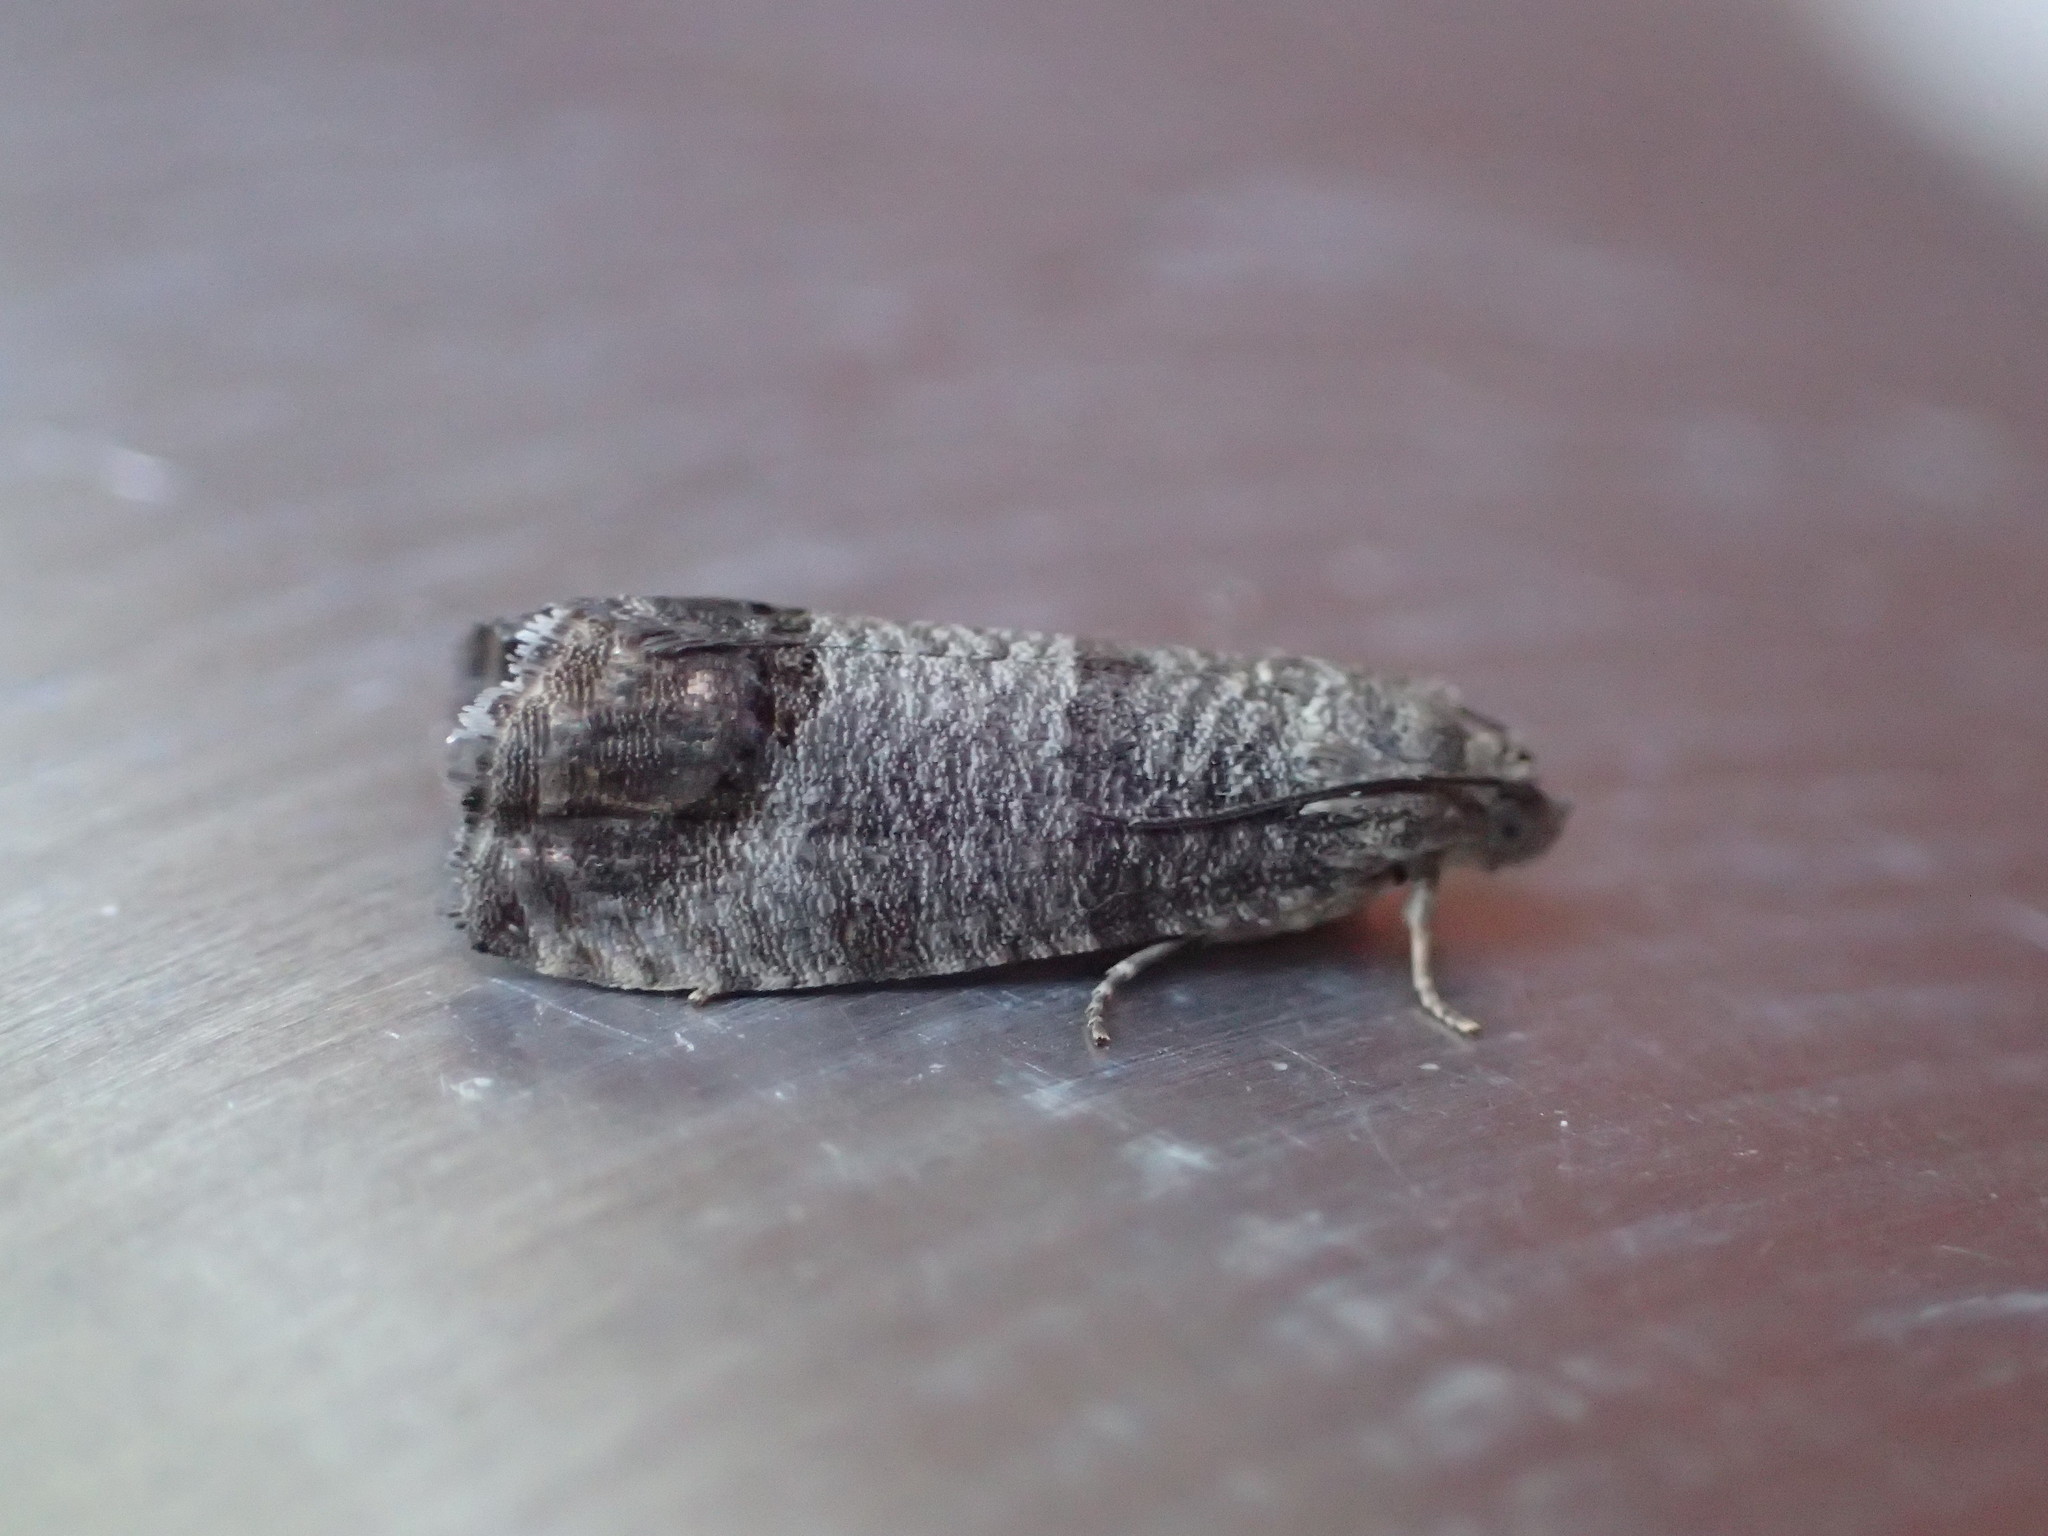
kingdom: Animalia
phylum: Arthropoda
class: Insecta
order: Lepidoptera
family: Tortricidae
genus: Cydia
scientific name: Cydia pomonella
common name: Codling moth
